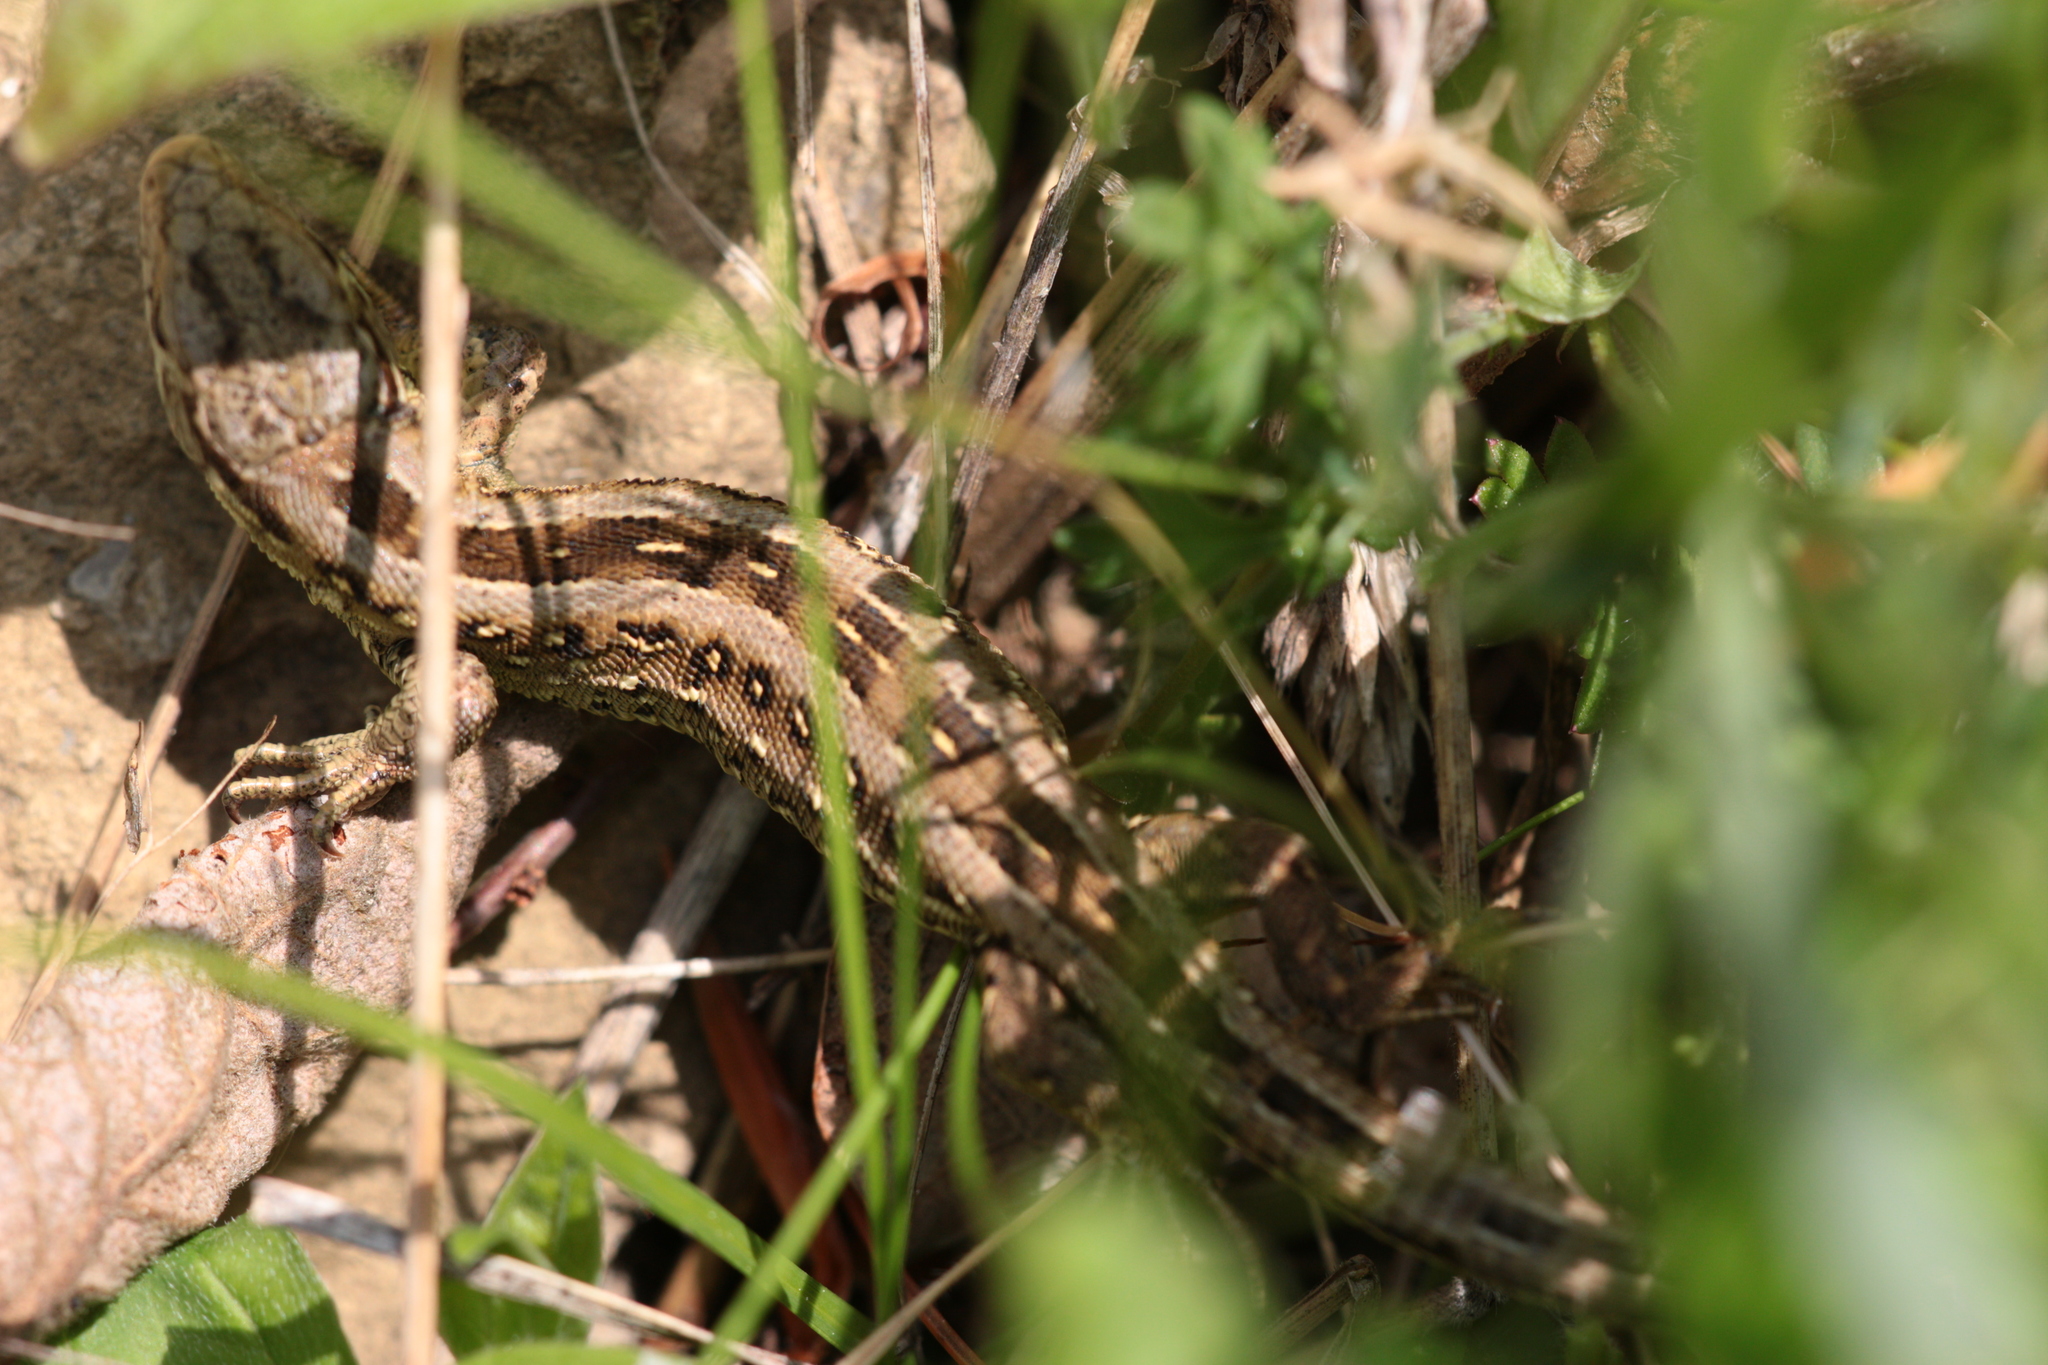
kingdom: Animalia
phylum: Chordata
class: Squamata
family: Lacertidae
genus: Lacerta
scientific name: Lacerta agilis
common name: Sand lizard
